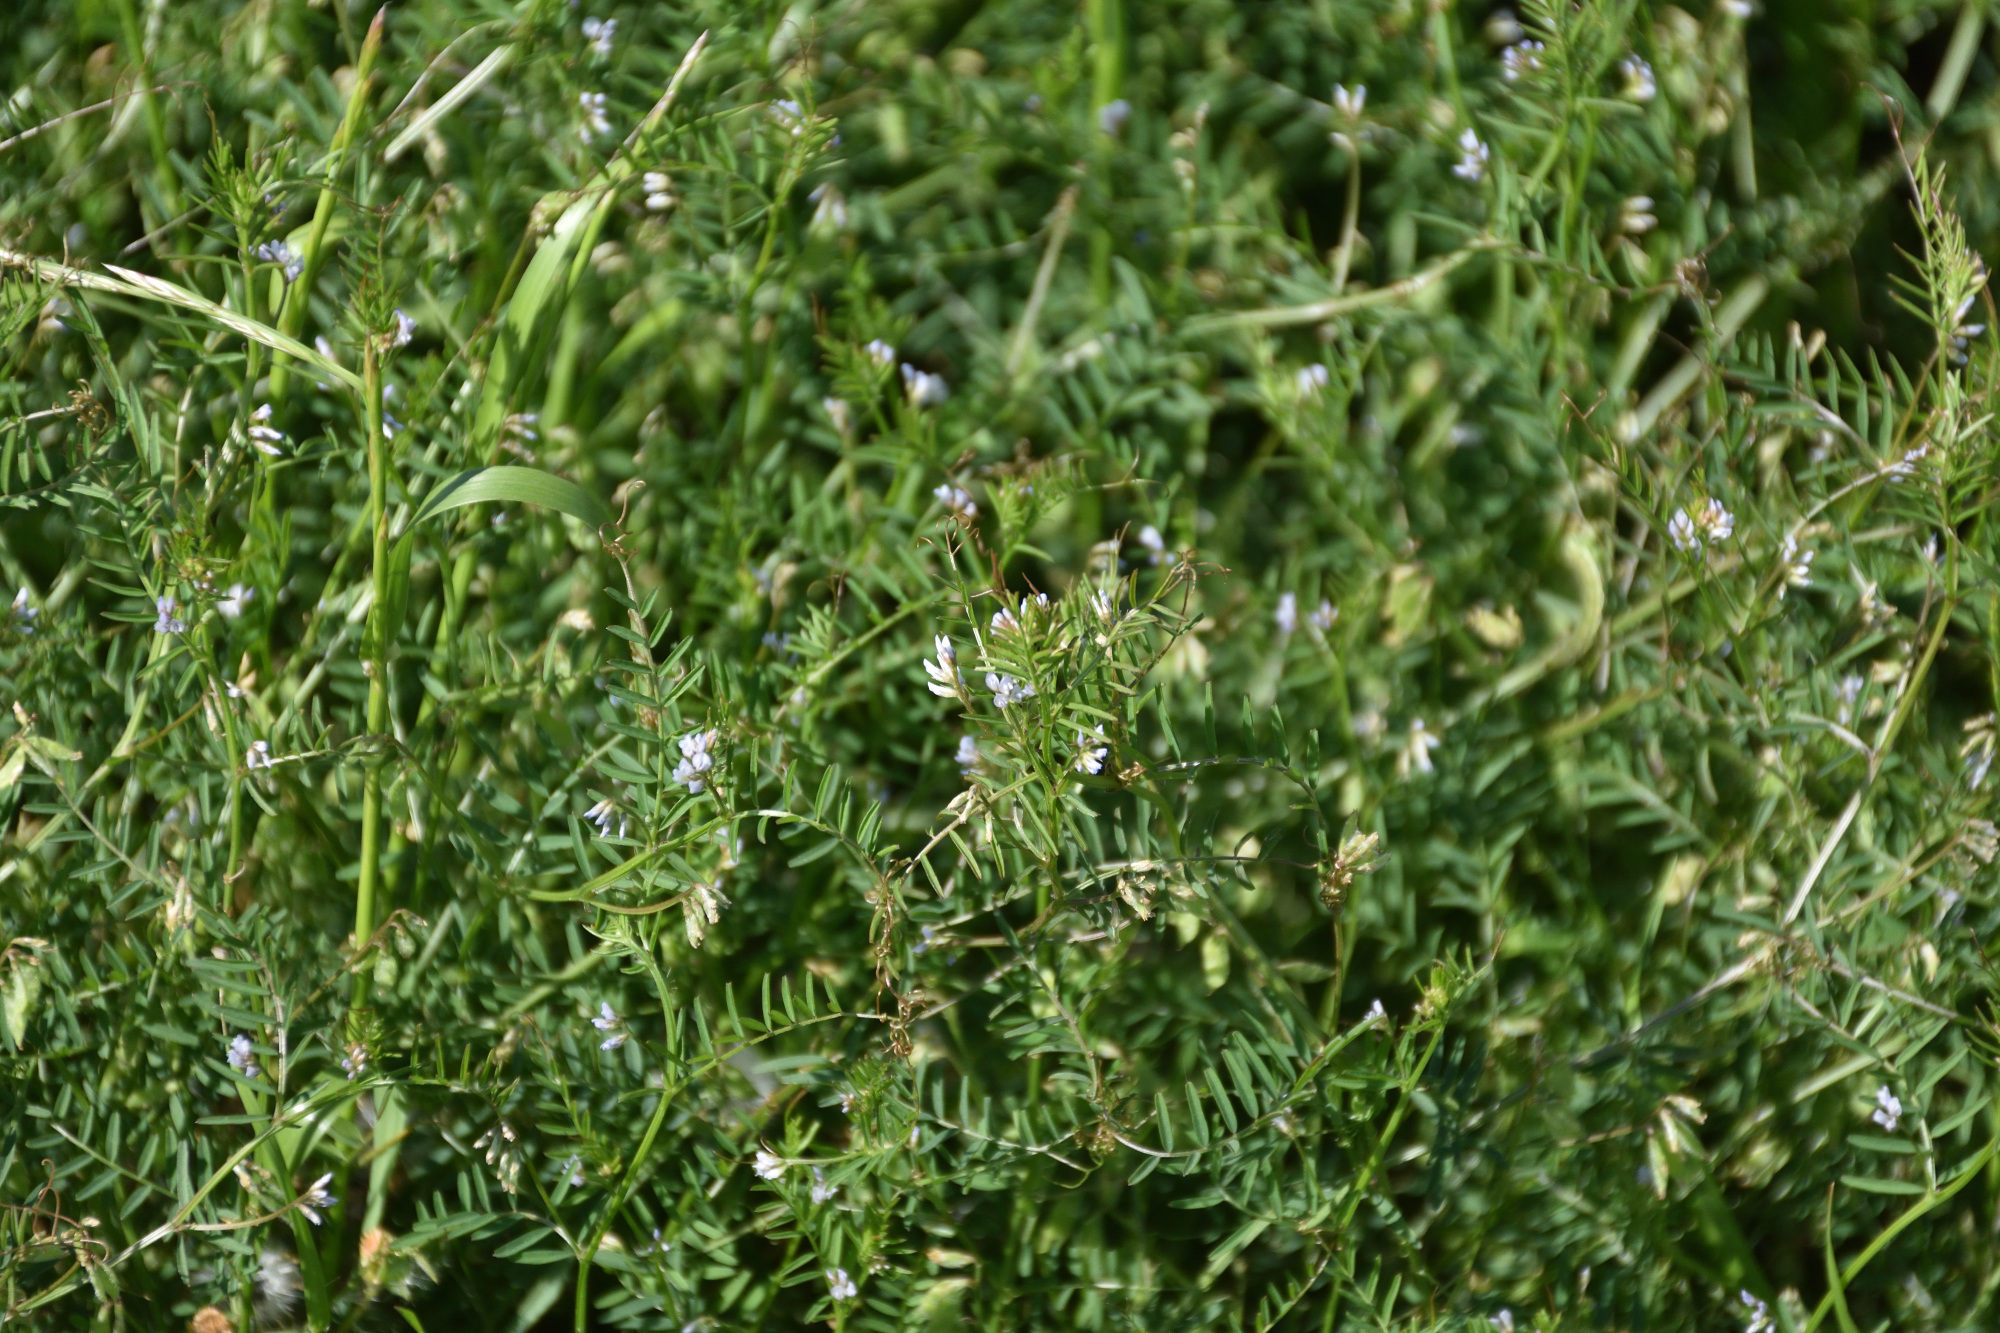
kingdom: Plantae
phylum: Tracheophyta
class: Magnoliopsida
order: Fabales
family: Fabaceae
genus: Vicia
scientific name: Vicia hirsuta
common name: Tiny vetch
